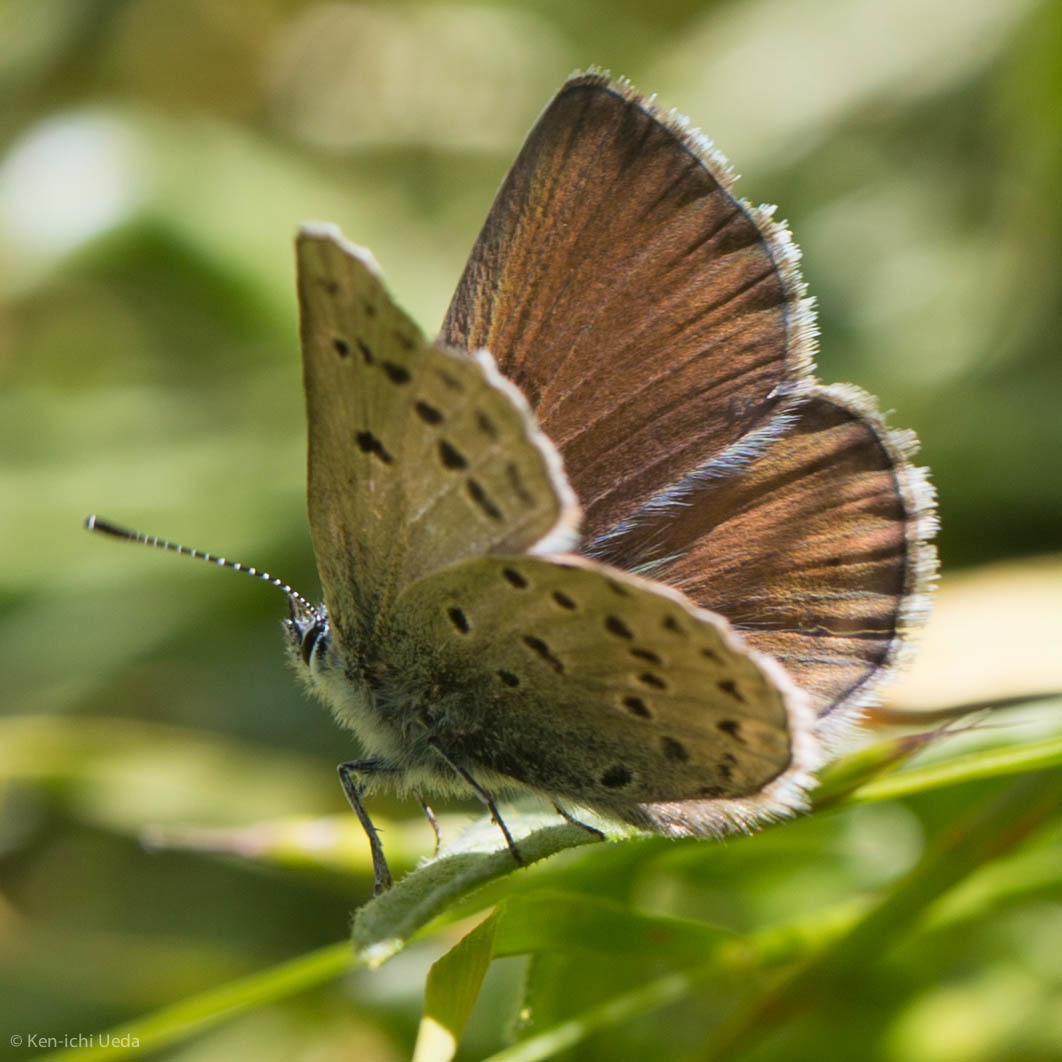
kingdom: Animalia
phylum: Arthropoda
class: Insecta
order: Lepidoptera
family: Lycaenidae
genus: Icaricia
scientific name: Icaricia icarioides
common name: Boisduval's blue
